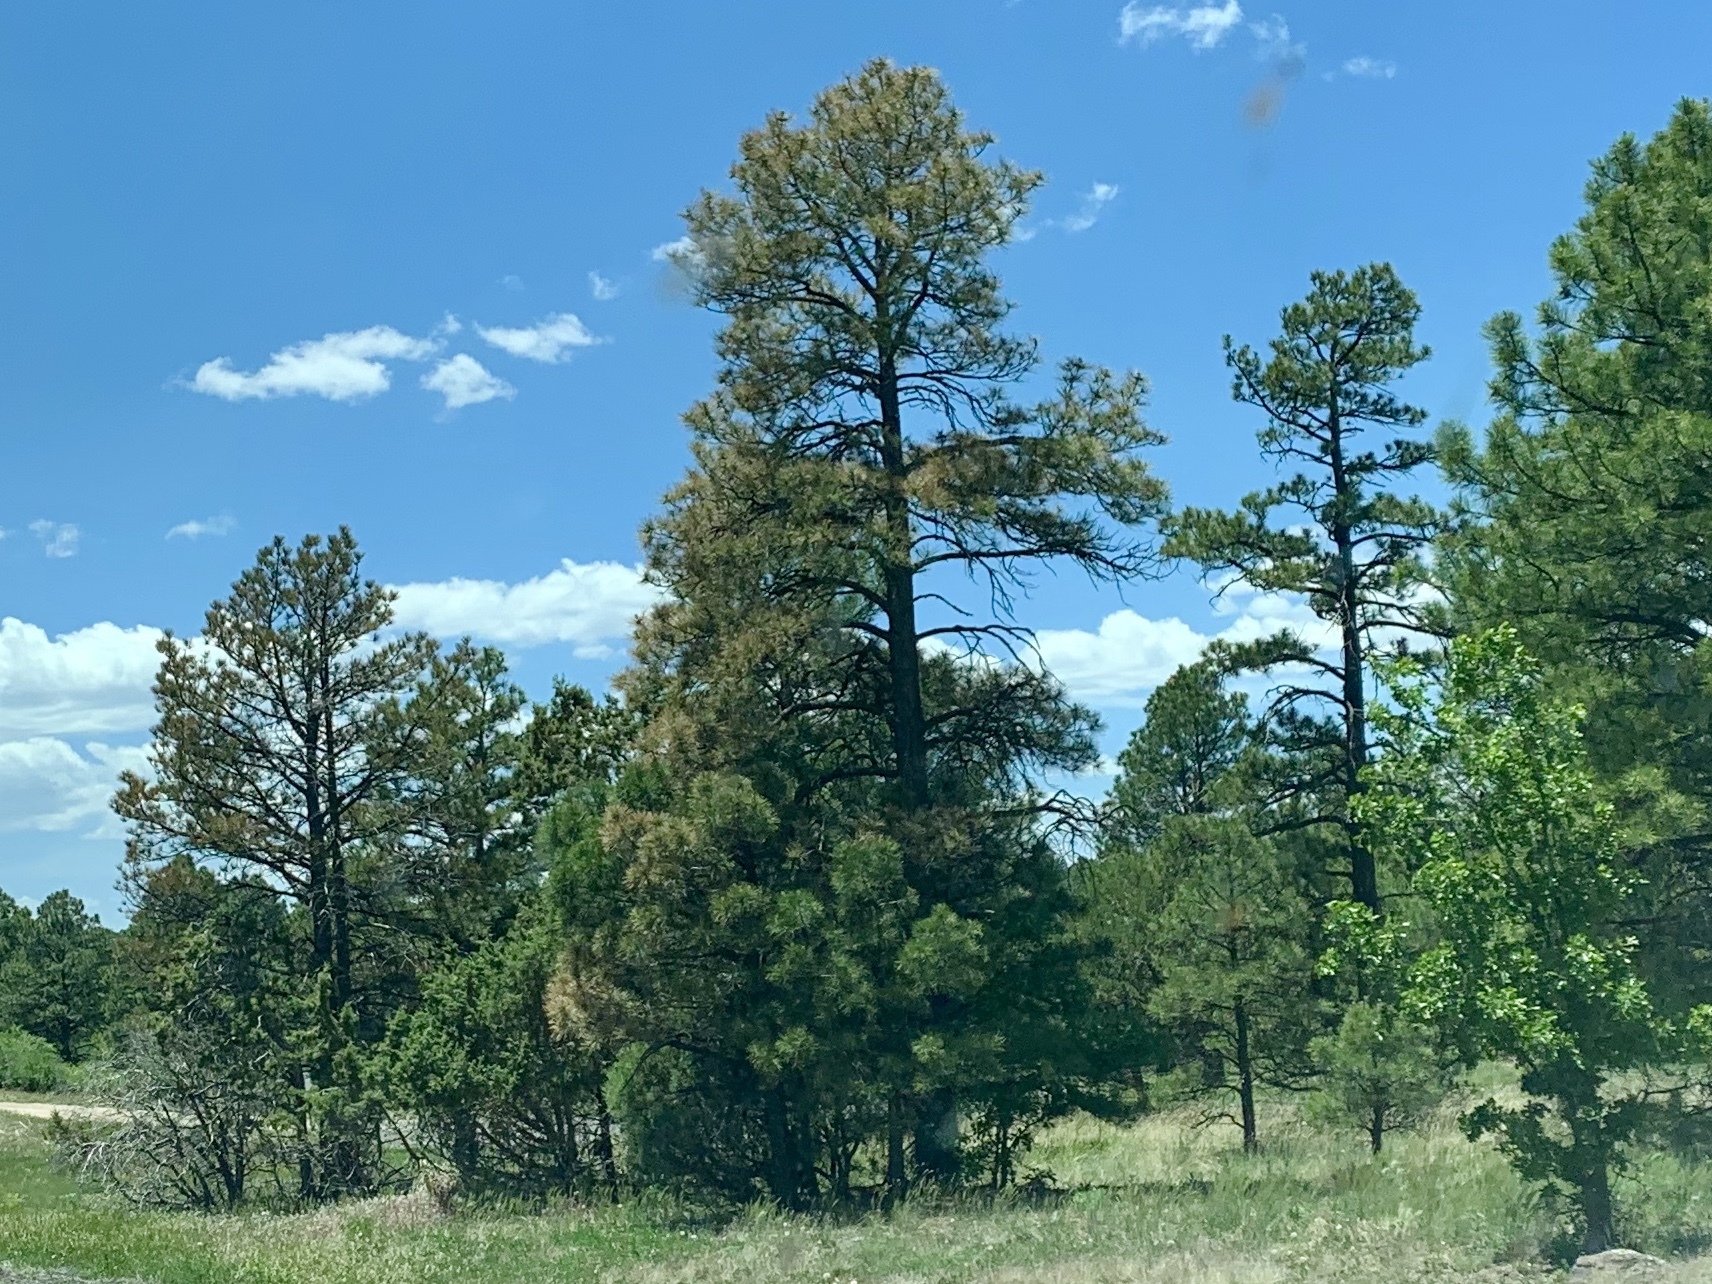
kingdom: Plantae
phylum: Tracheophyta
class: Pinopsida
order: Pinales
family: Pinaceae
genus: Pinus
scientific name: Pinus ponderosa
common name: Western yellow-pine
